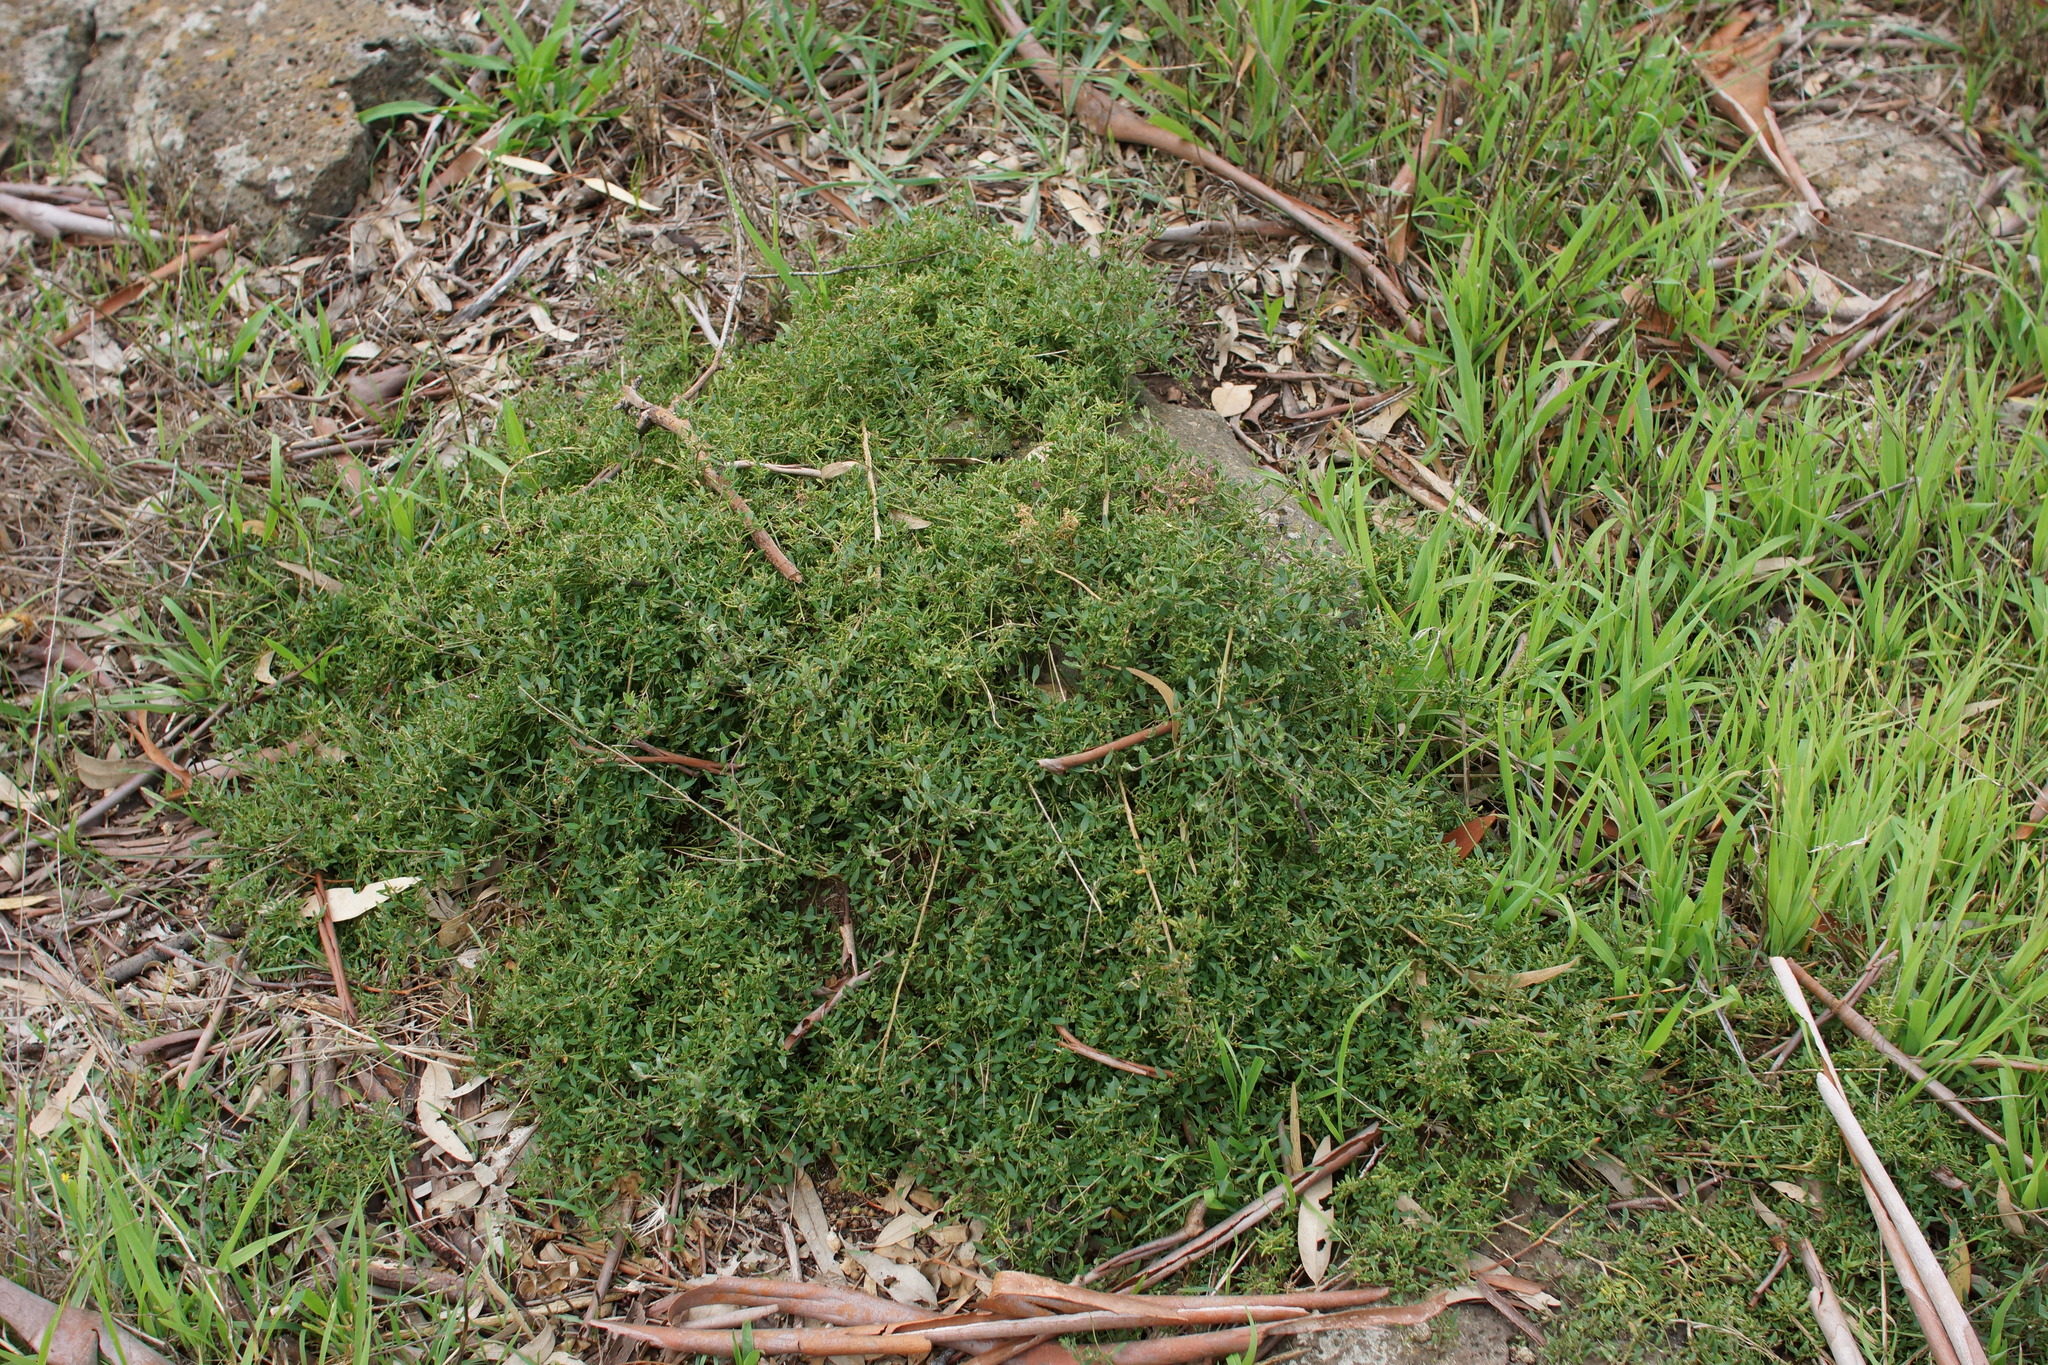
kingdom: Plantae
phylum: Tracheophyta
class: Magnoliopsida
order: Caryophyllales
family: Amaranthaceae
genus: Chenopodium
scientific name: Chenopodium nutans
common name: Climbing-saltbush
